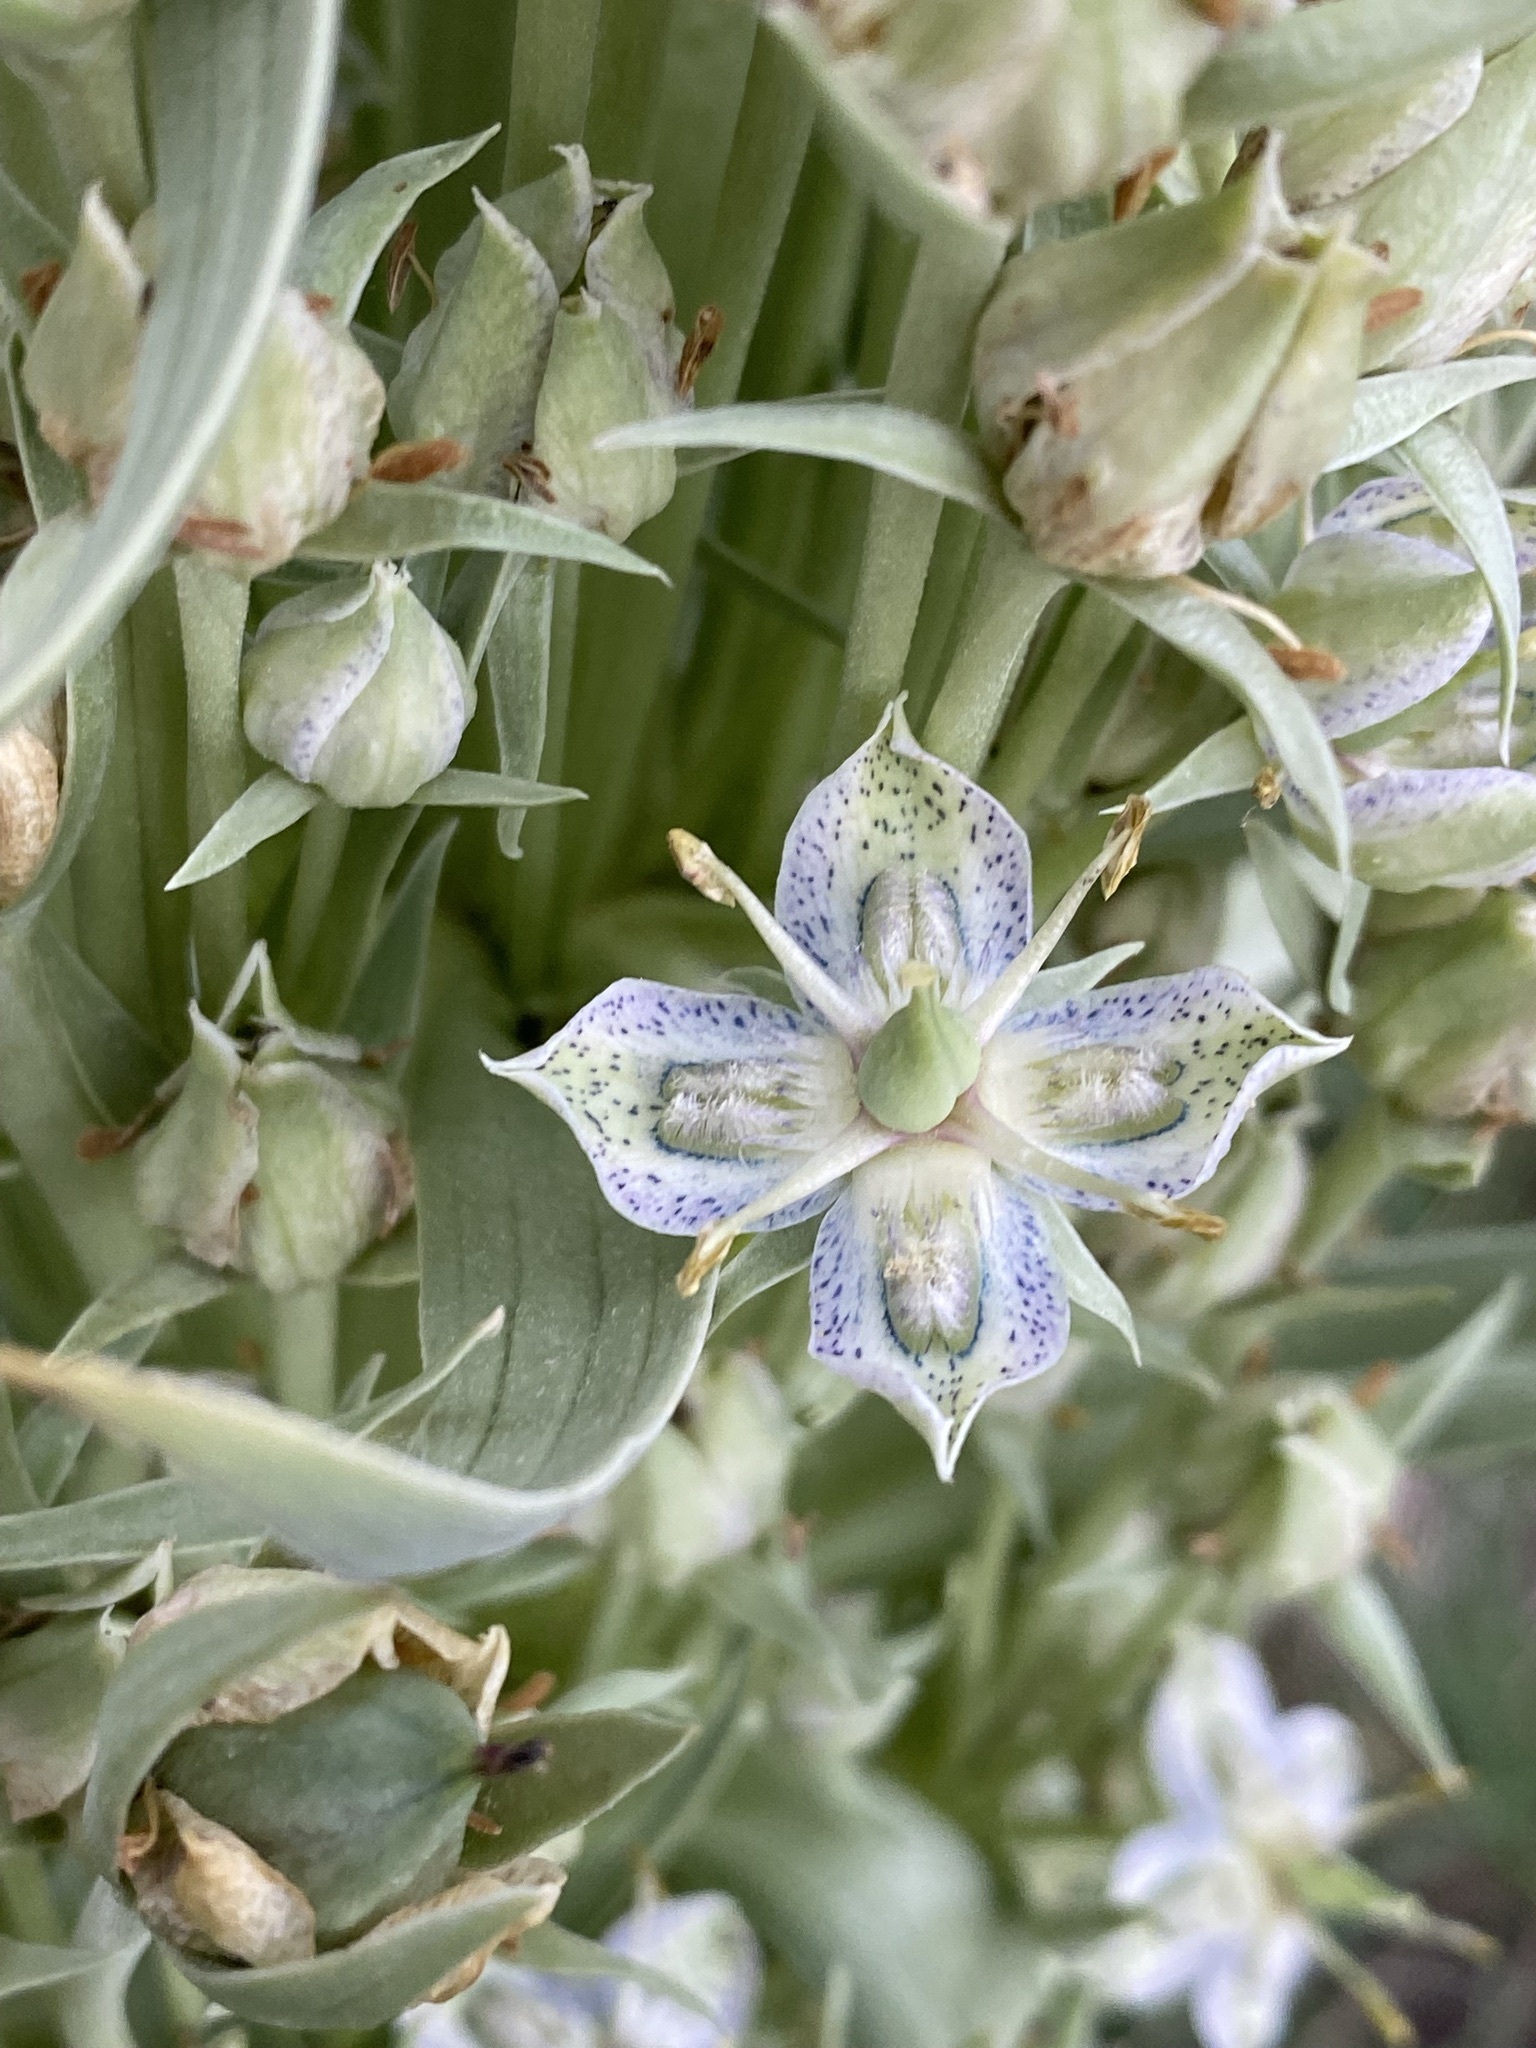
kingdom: Plantae
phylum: Tracheophyta
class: Magnoliopsida
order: Gentianales
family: Gentianaceae
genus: Frasera
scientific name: Frasera speciosa
